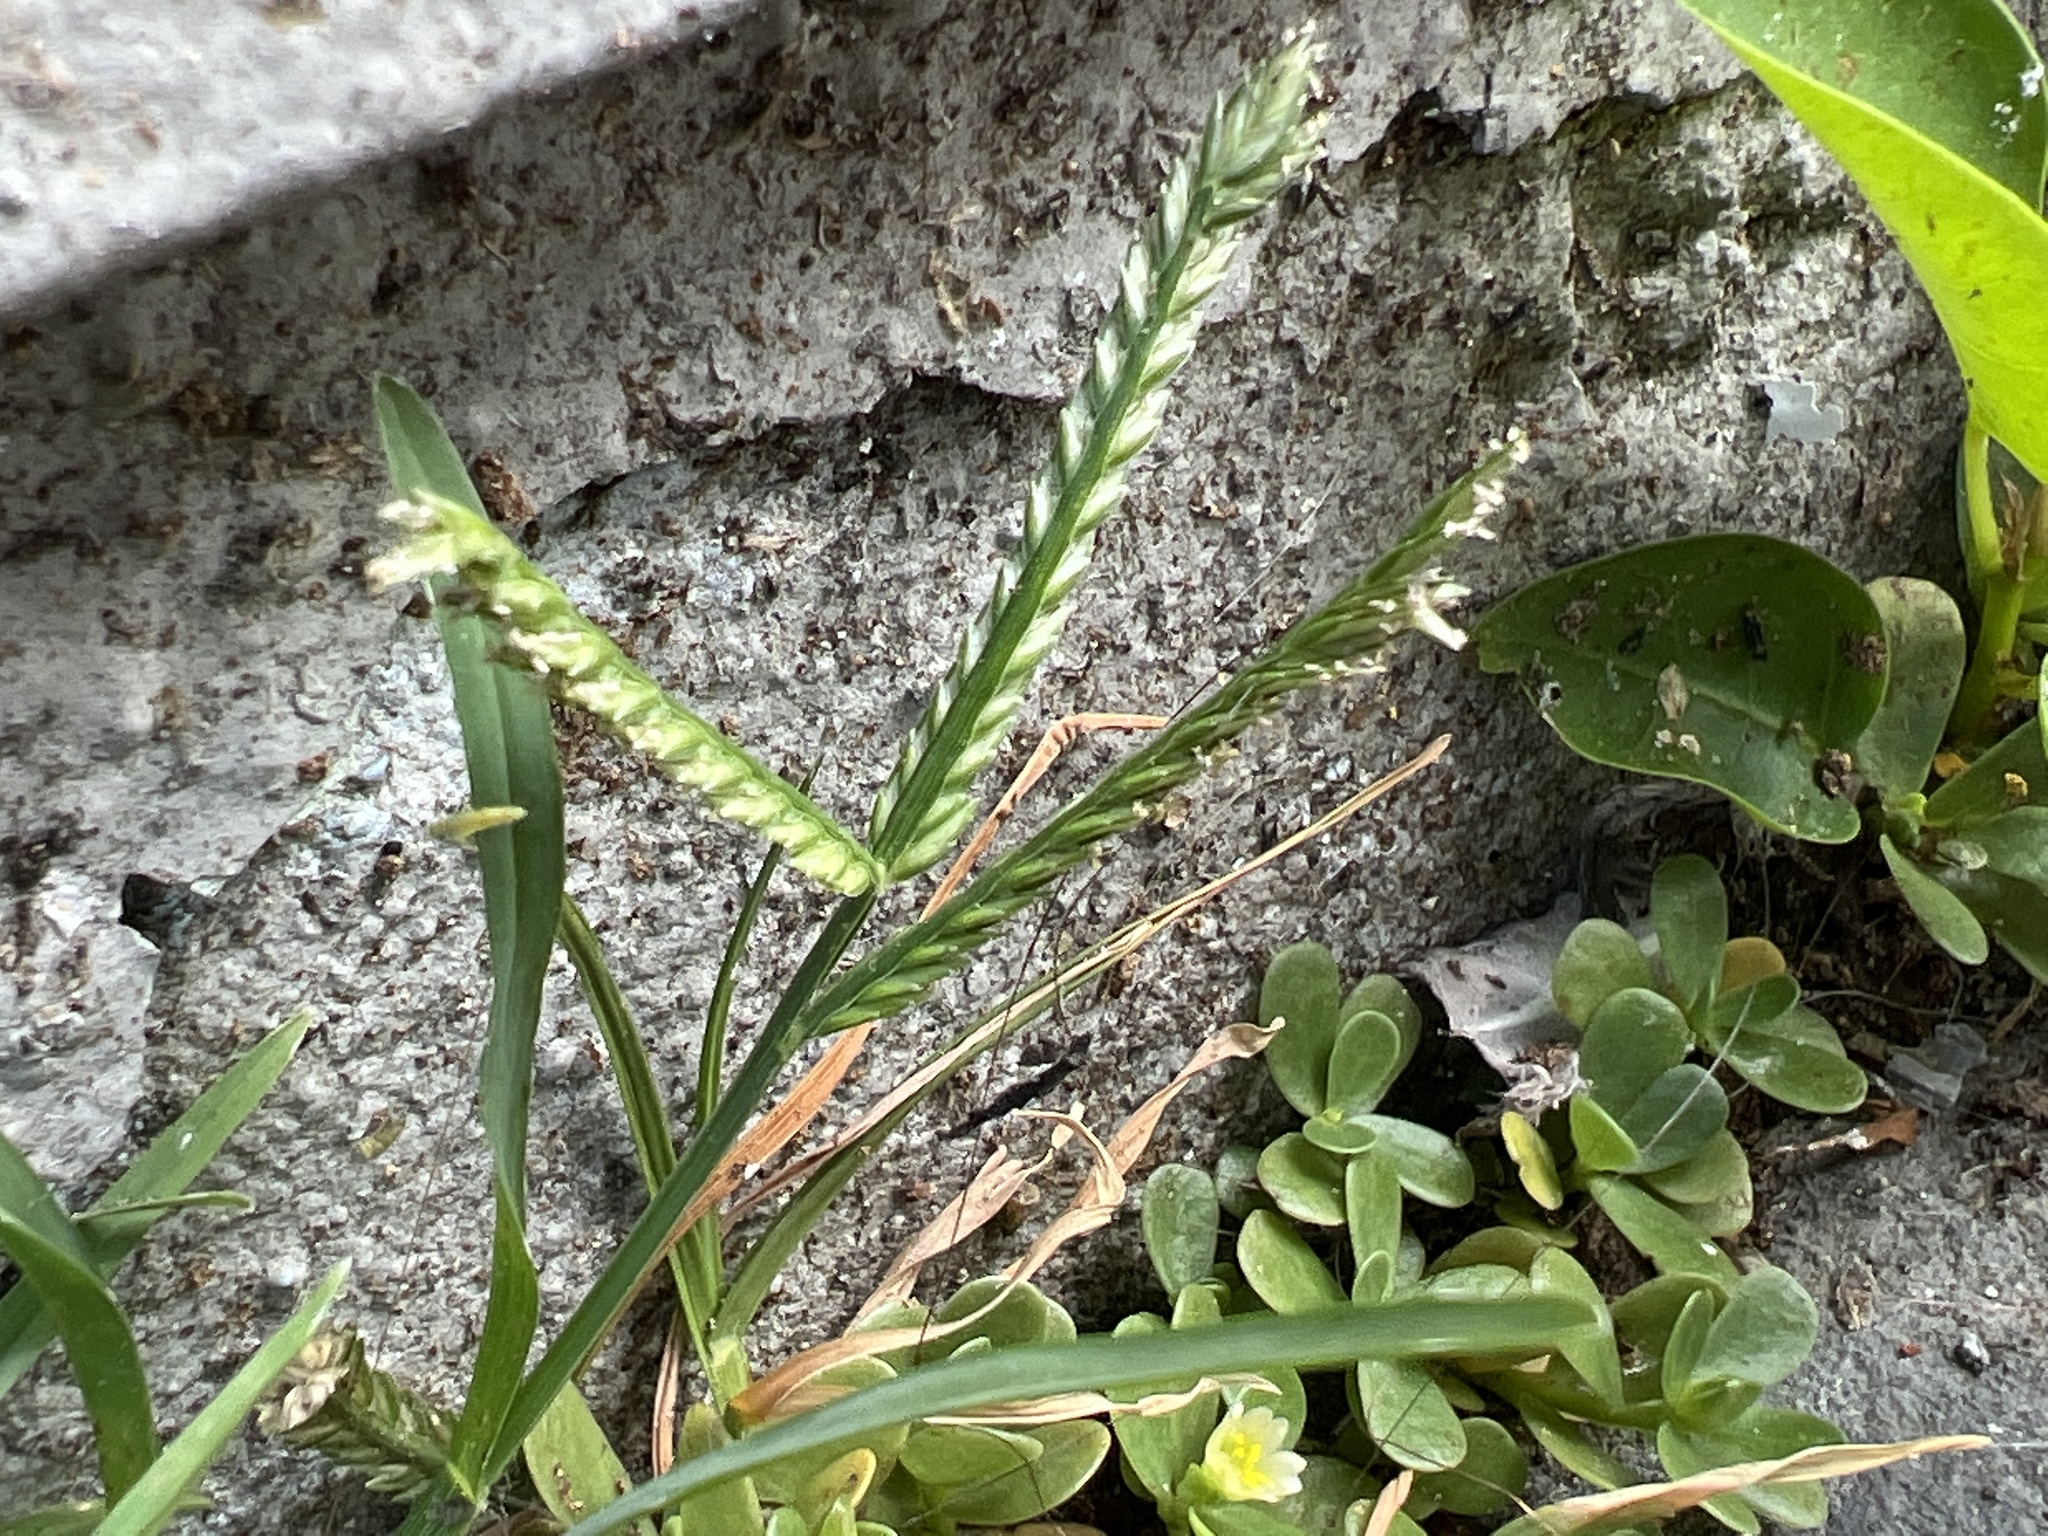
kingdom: Plantae
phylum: Tracheophyta
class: Liliopsida
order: Poales
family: Poaceae
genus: Eleusine
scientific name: Eleusine indica
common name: Yard-grass
